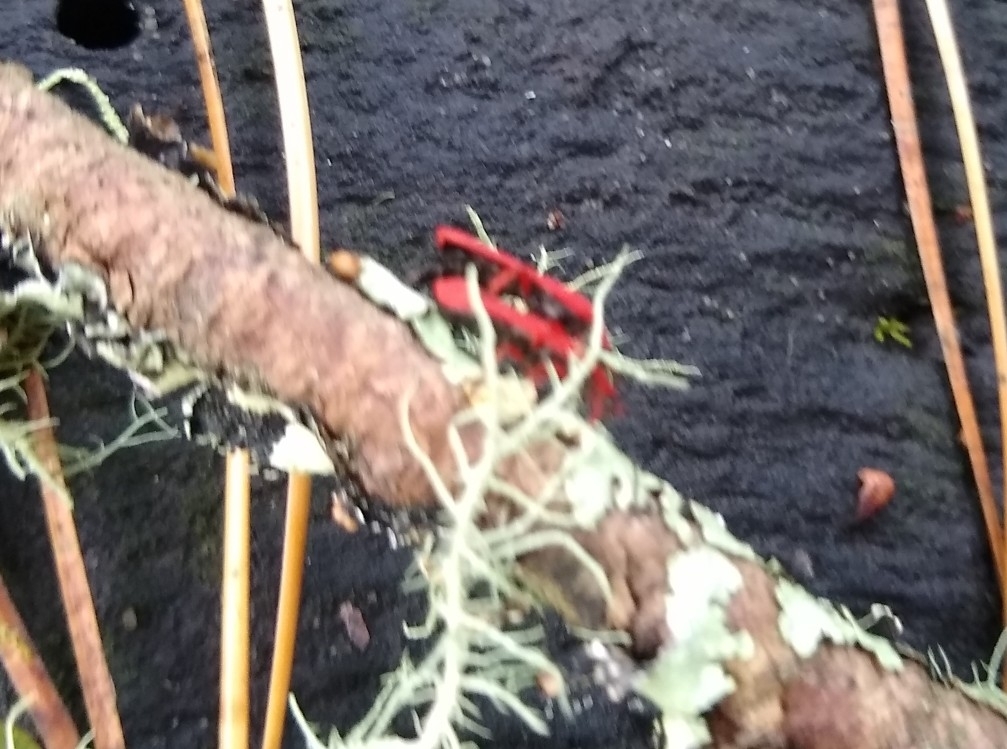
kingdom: Animalia
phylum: Arthropoda
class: Insecta
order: Coleoptera
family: Lycidae
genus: Dictyoptera
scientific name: Dictyoptera simplicipes
